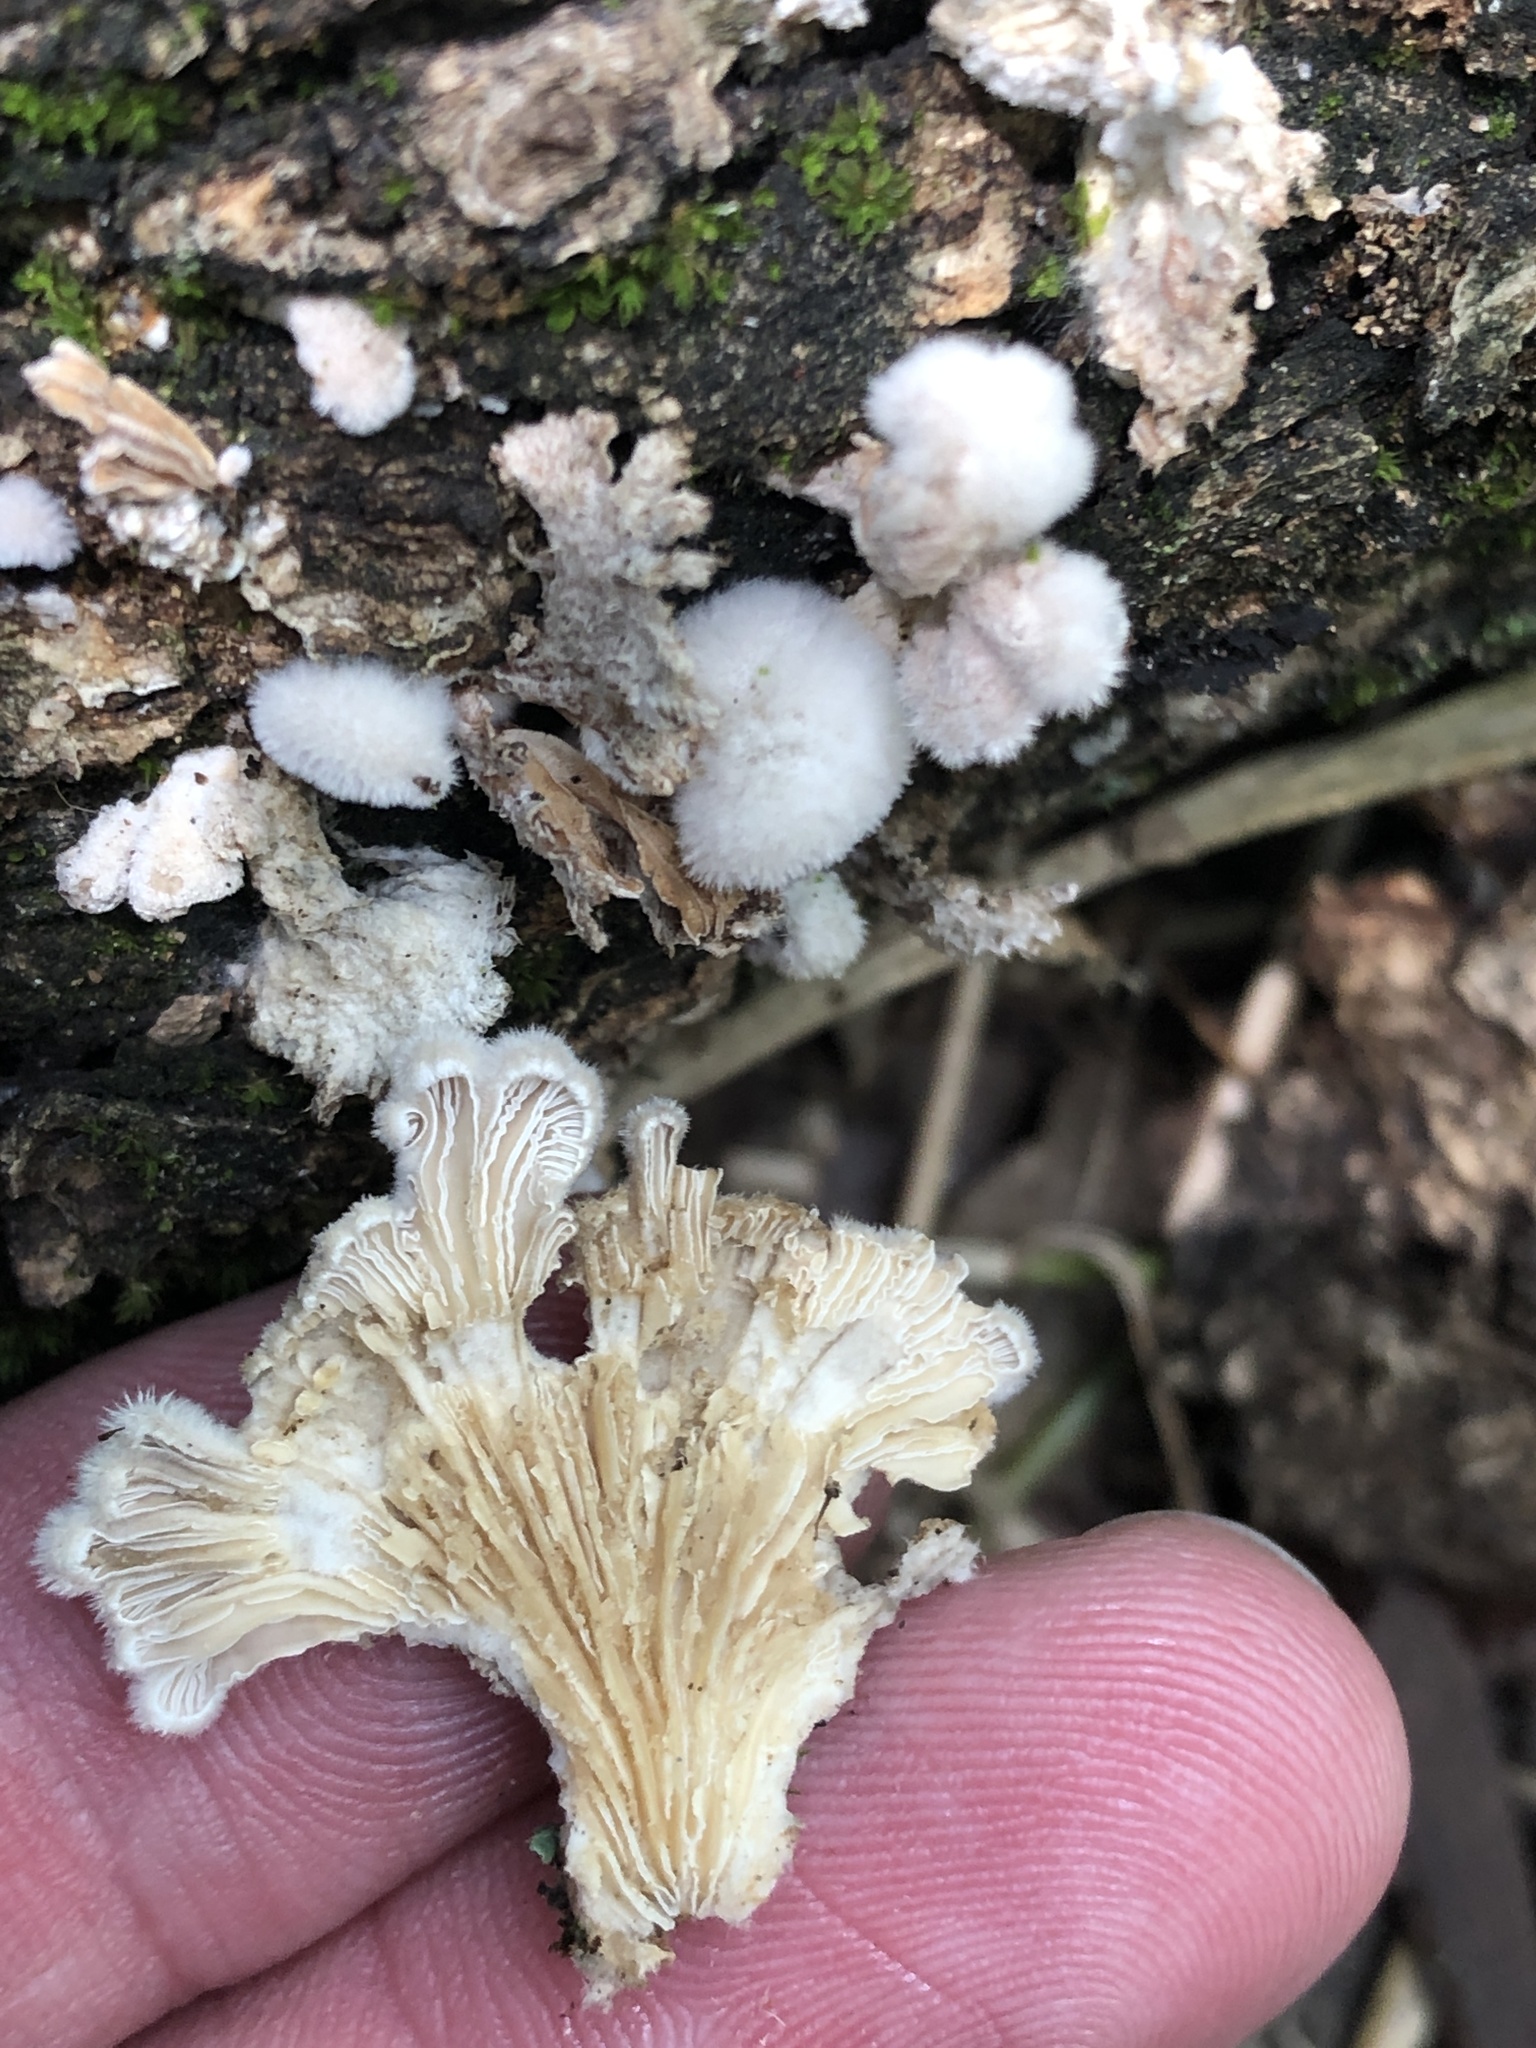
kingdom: Fungi
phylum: Basidiomycota
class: Agaricomycetes
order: Agaricales
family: Schizophyllaceae
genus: Schizophyllum
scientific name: Schizophyllum commune
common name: Common porecrust
